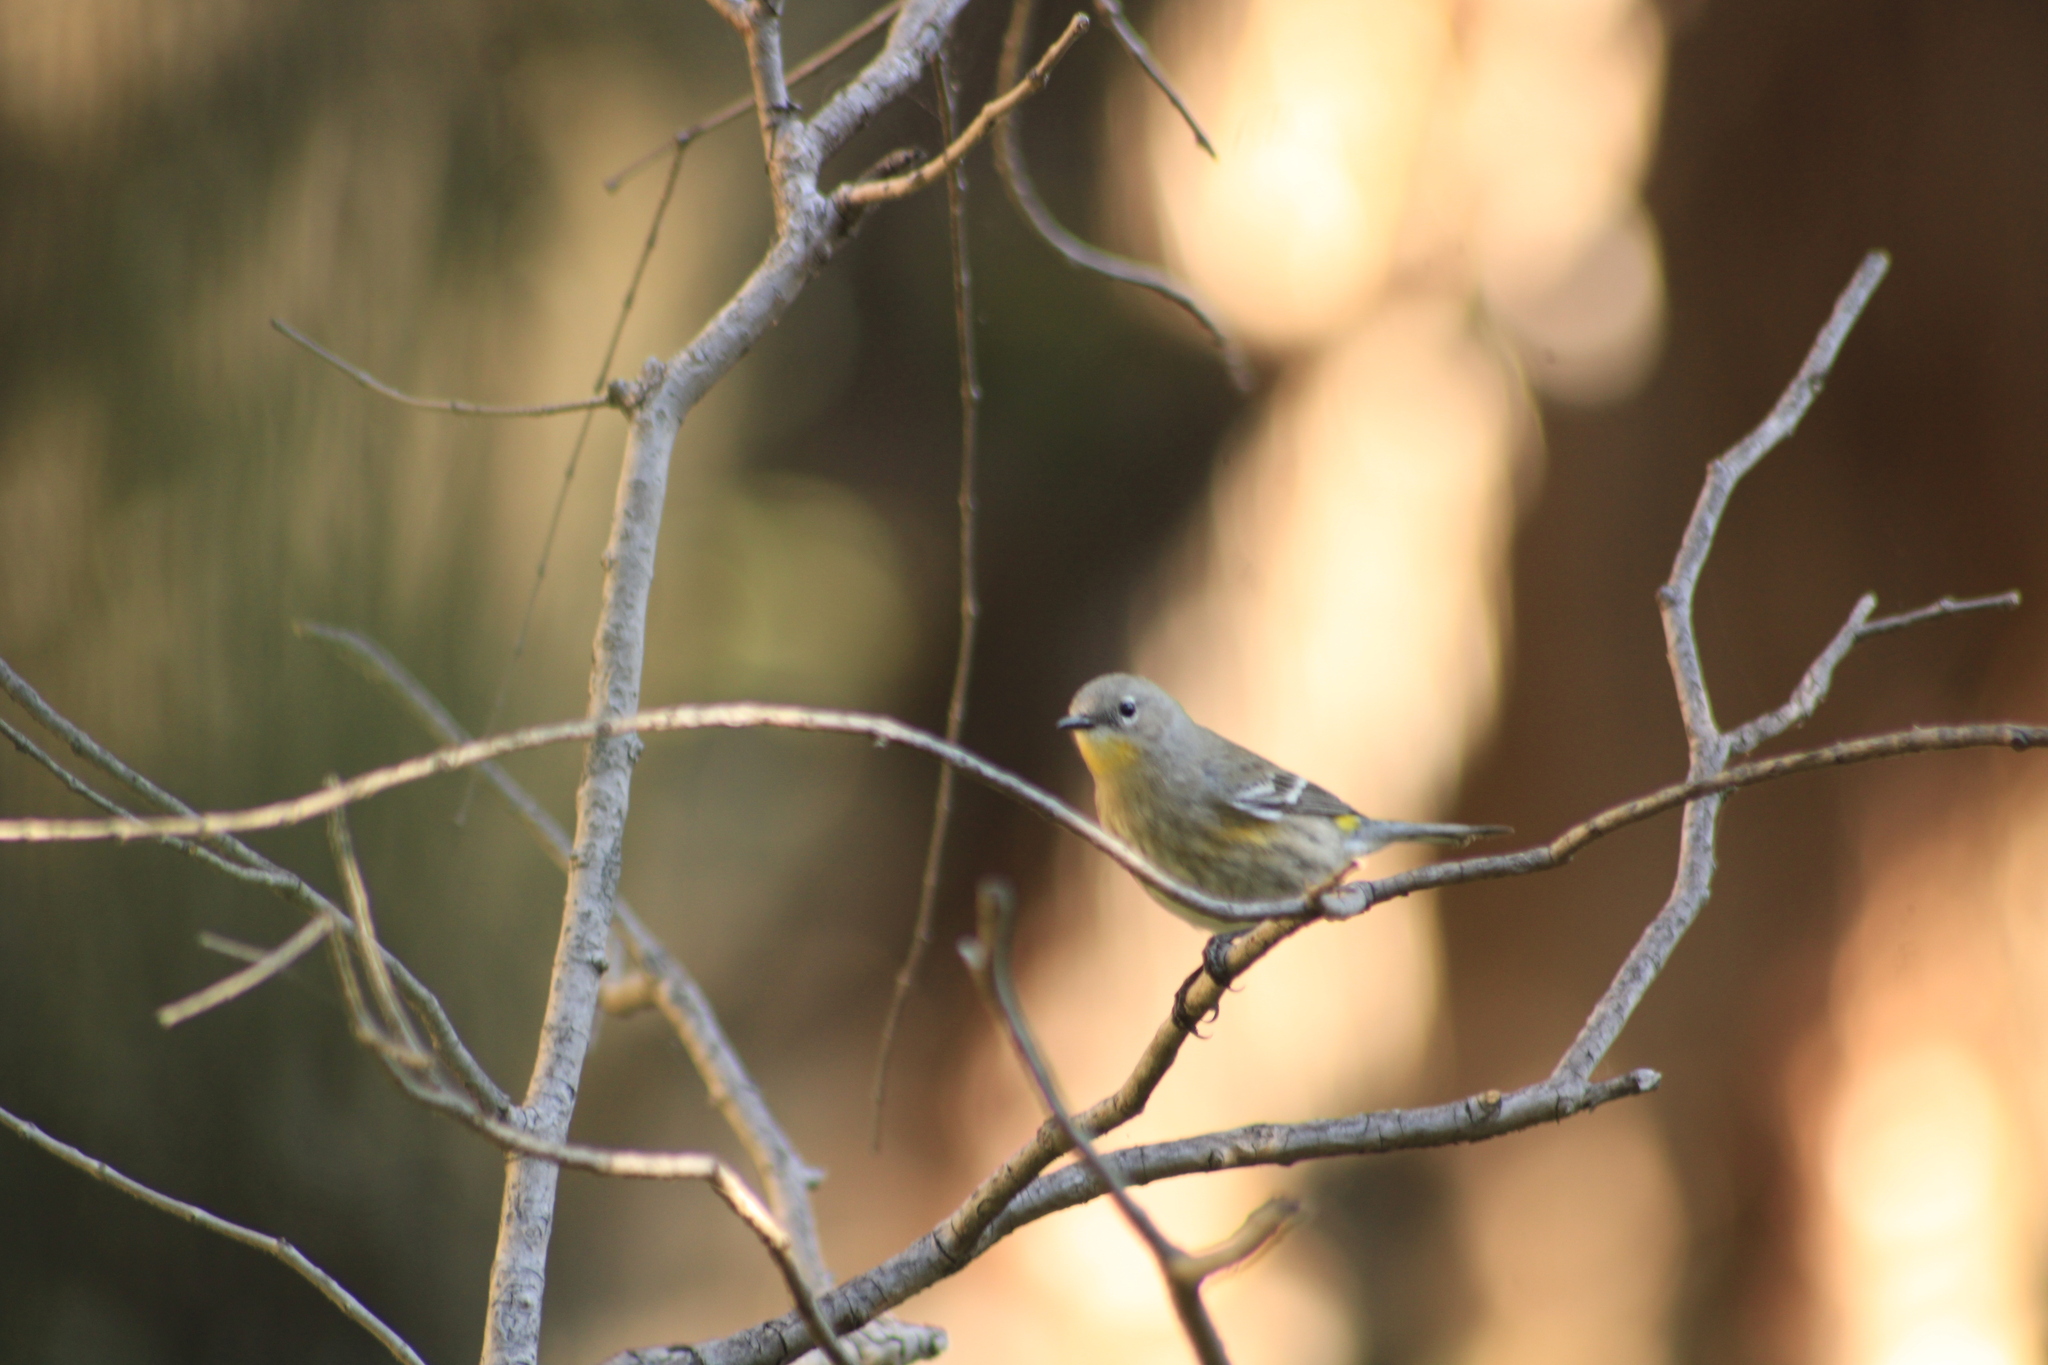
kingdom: Animalia
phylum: Chordata
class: Aves
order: Passeriformes
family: Parulidae
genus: Setophaga
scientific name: Setophaga auduboni
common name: Audubon's warbler
